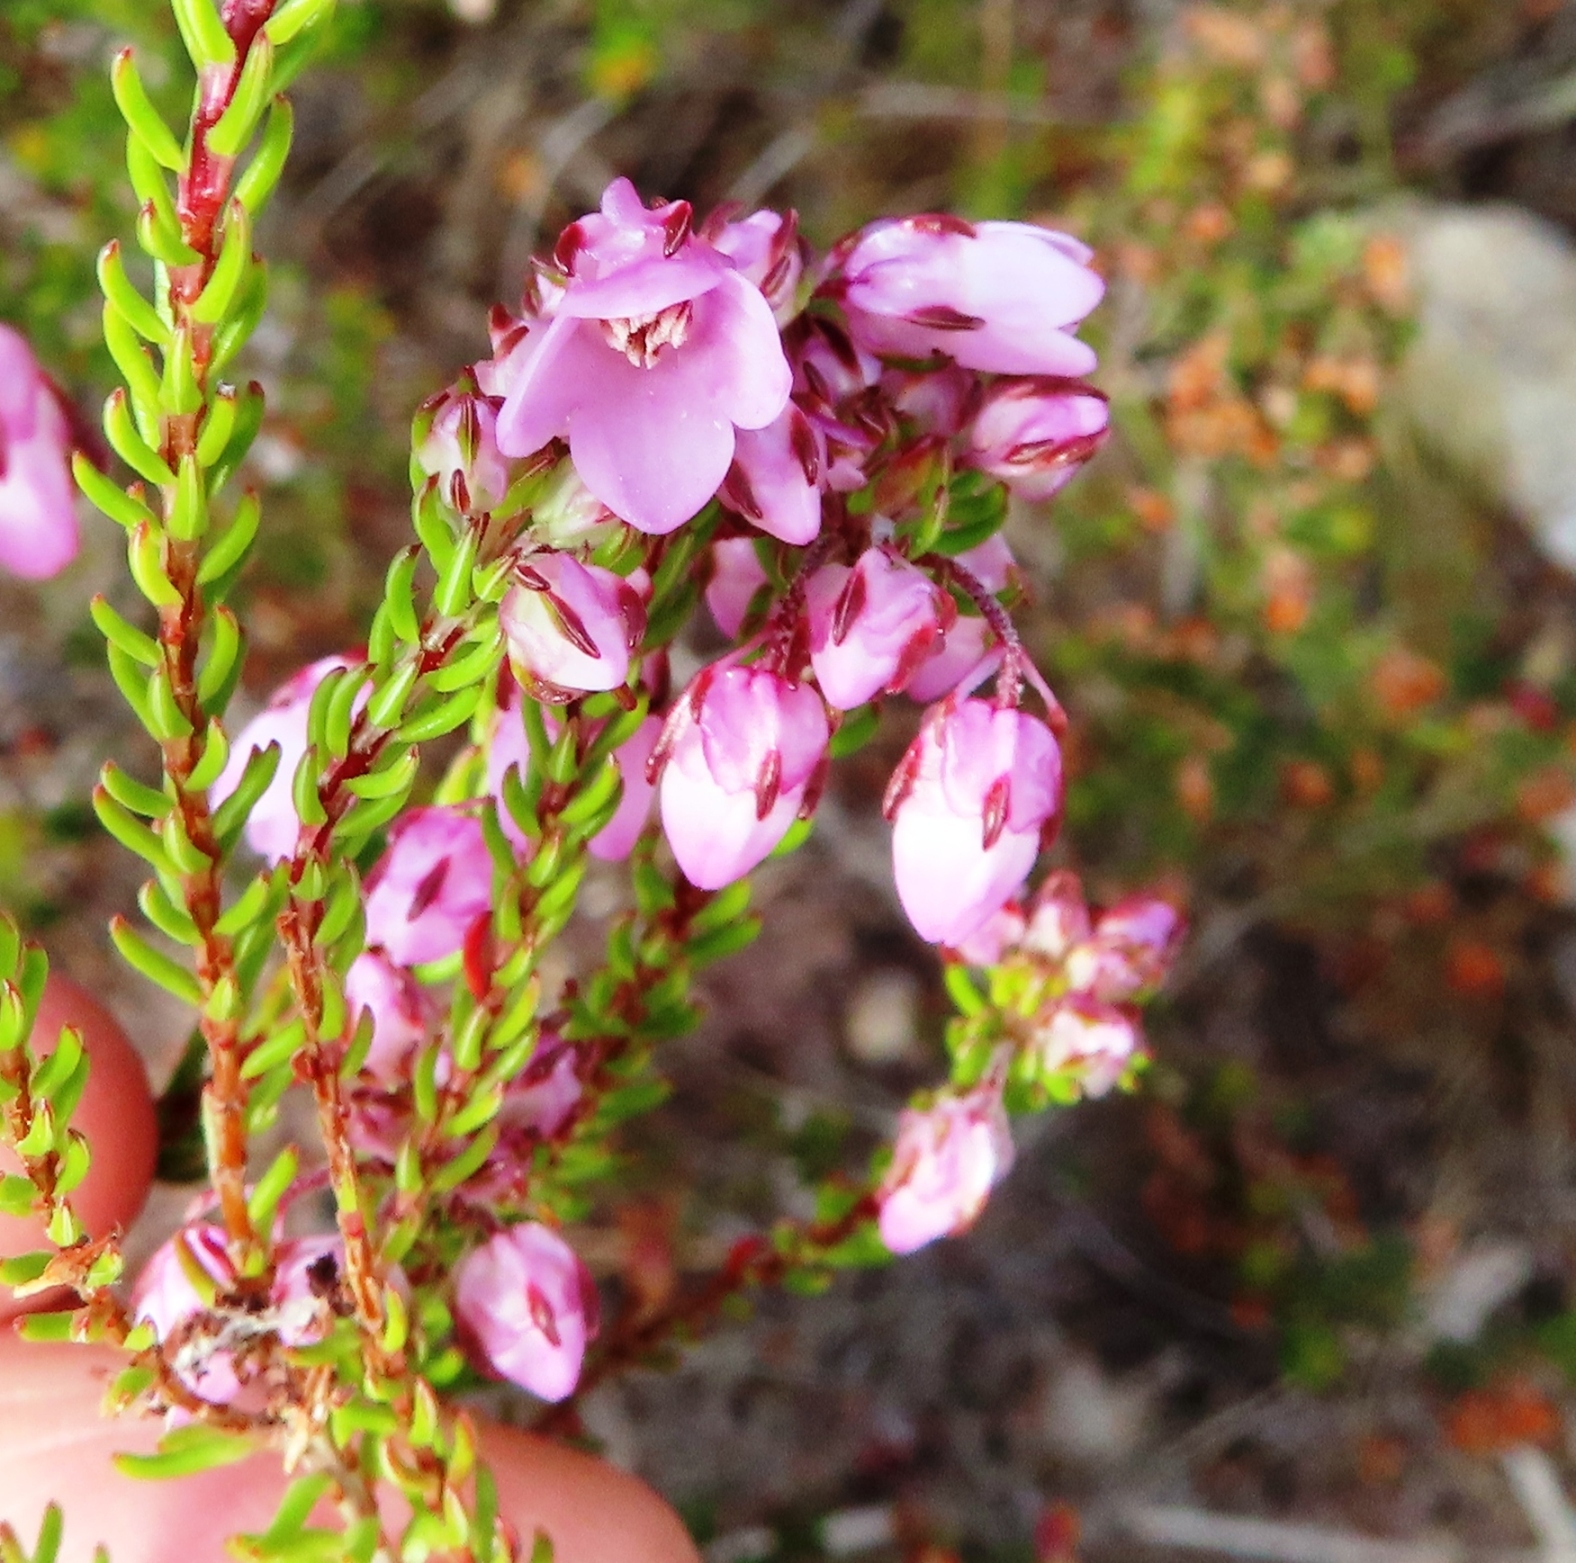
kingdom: Plantae
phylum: Tracheophyta
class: Magnoliopsida
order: Ericales
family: Ericaceae
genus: Erica
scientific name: Erica cubica
